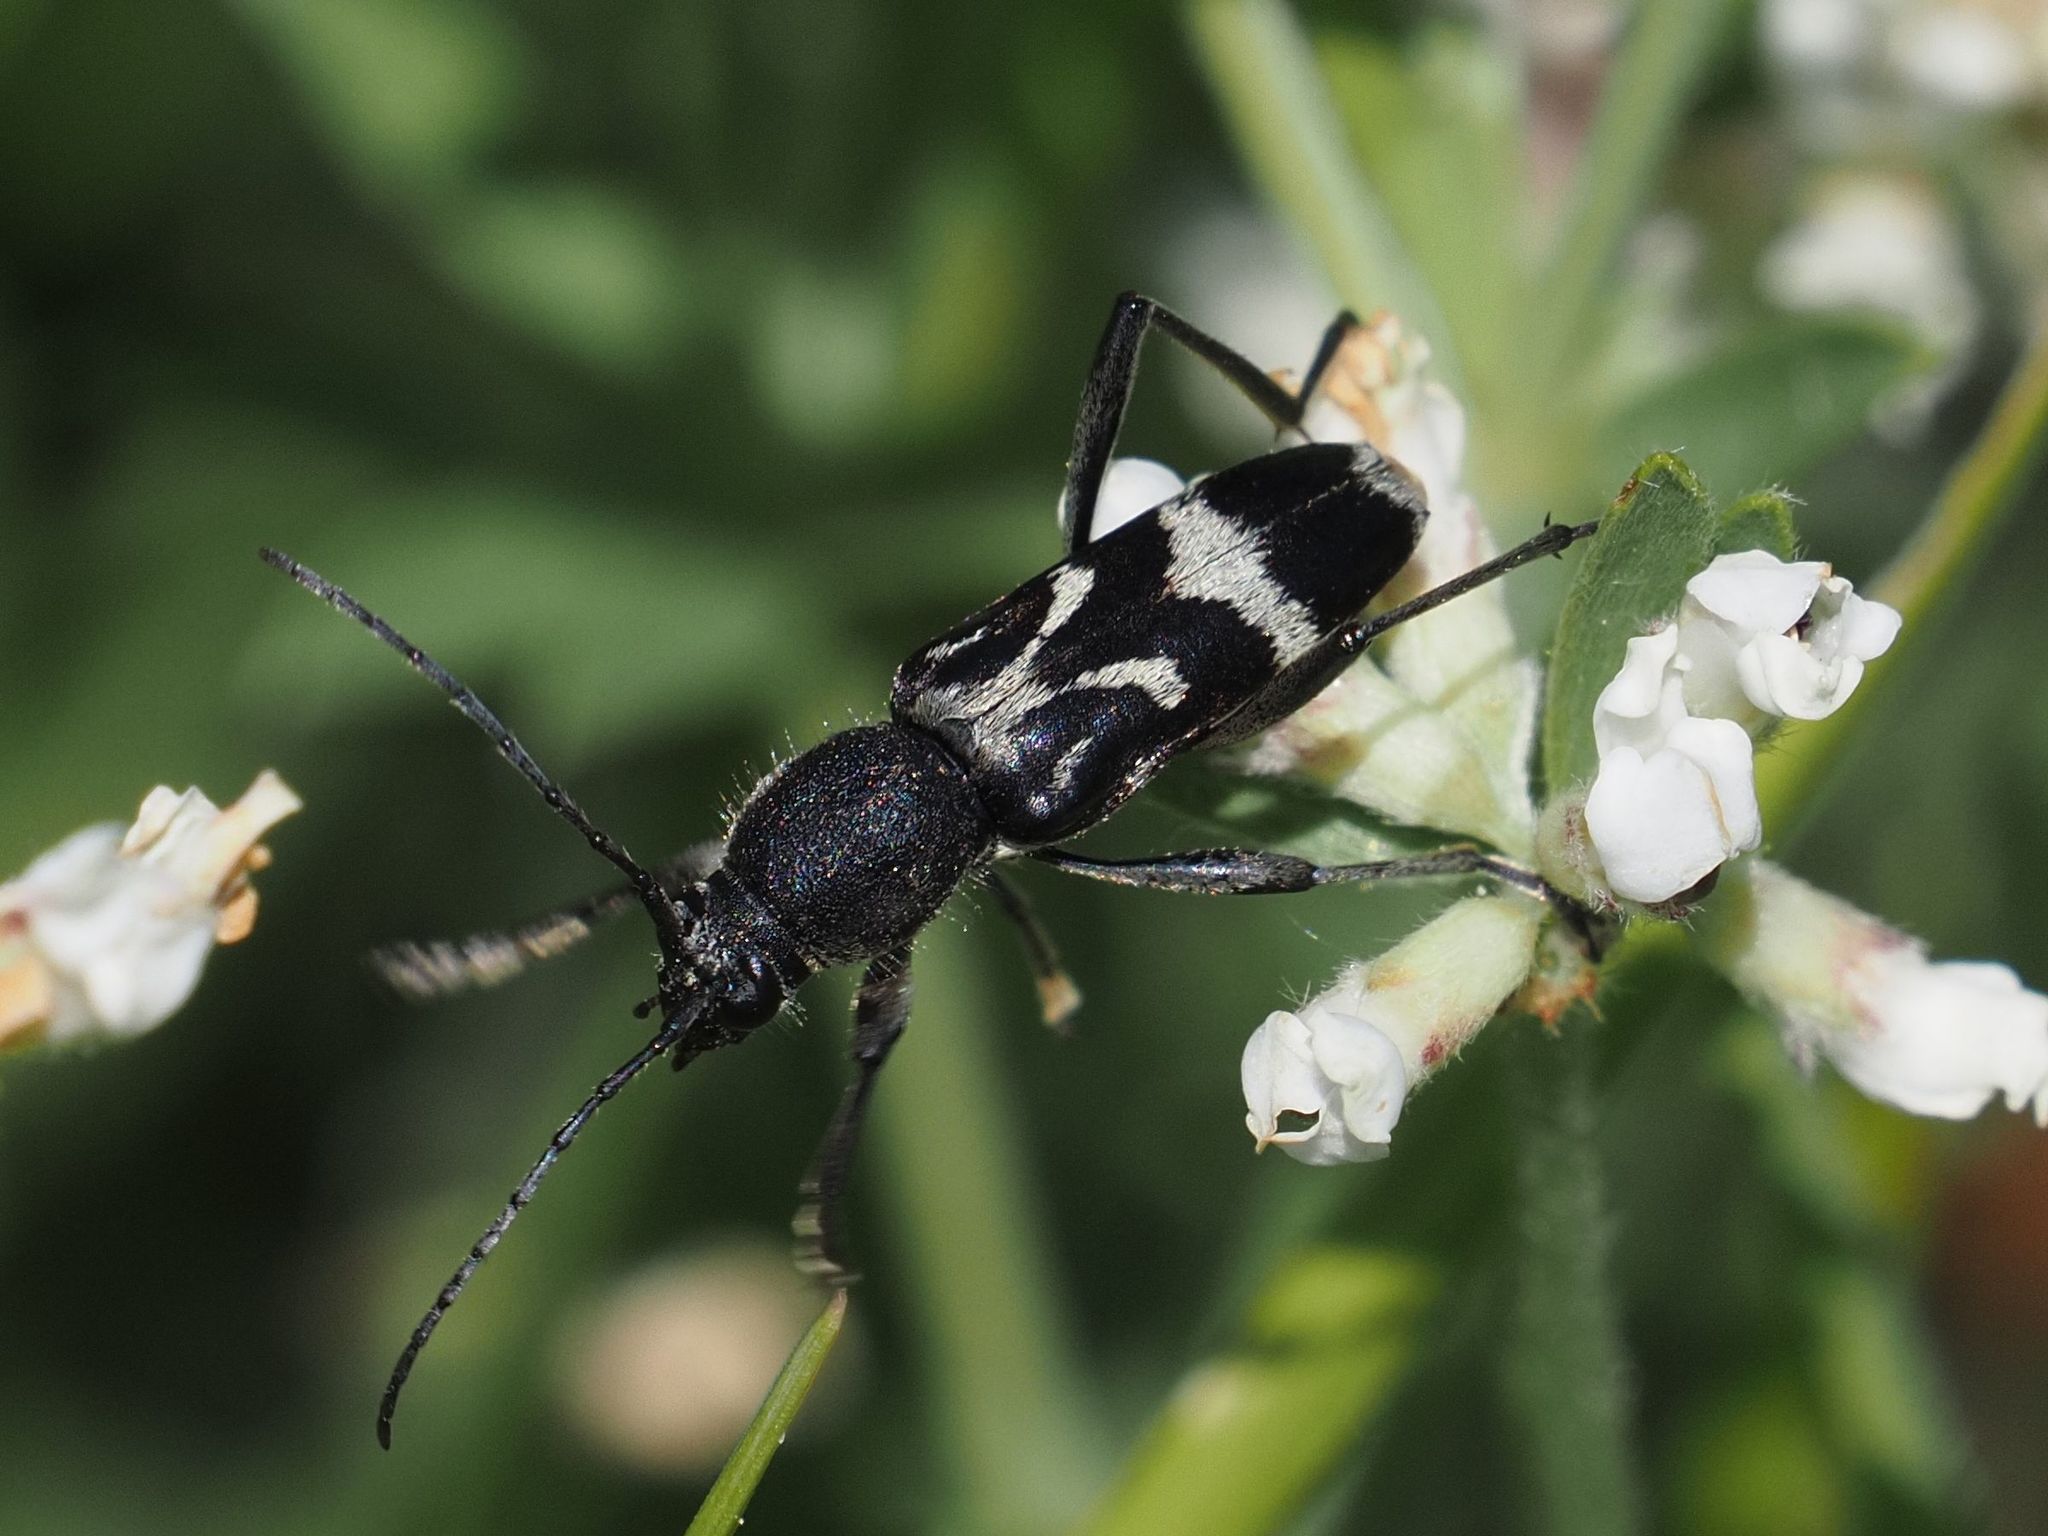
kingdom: Animalia
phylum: Arthropoda
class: Insecta
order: Coleoptera
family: Cerambycidae
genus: Chlorophorus
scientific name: Chlorophorus figuratus
